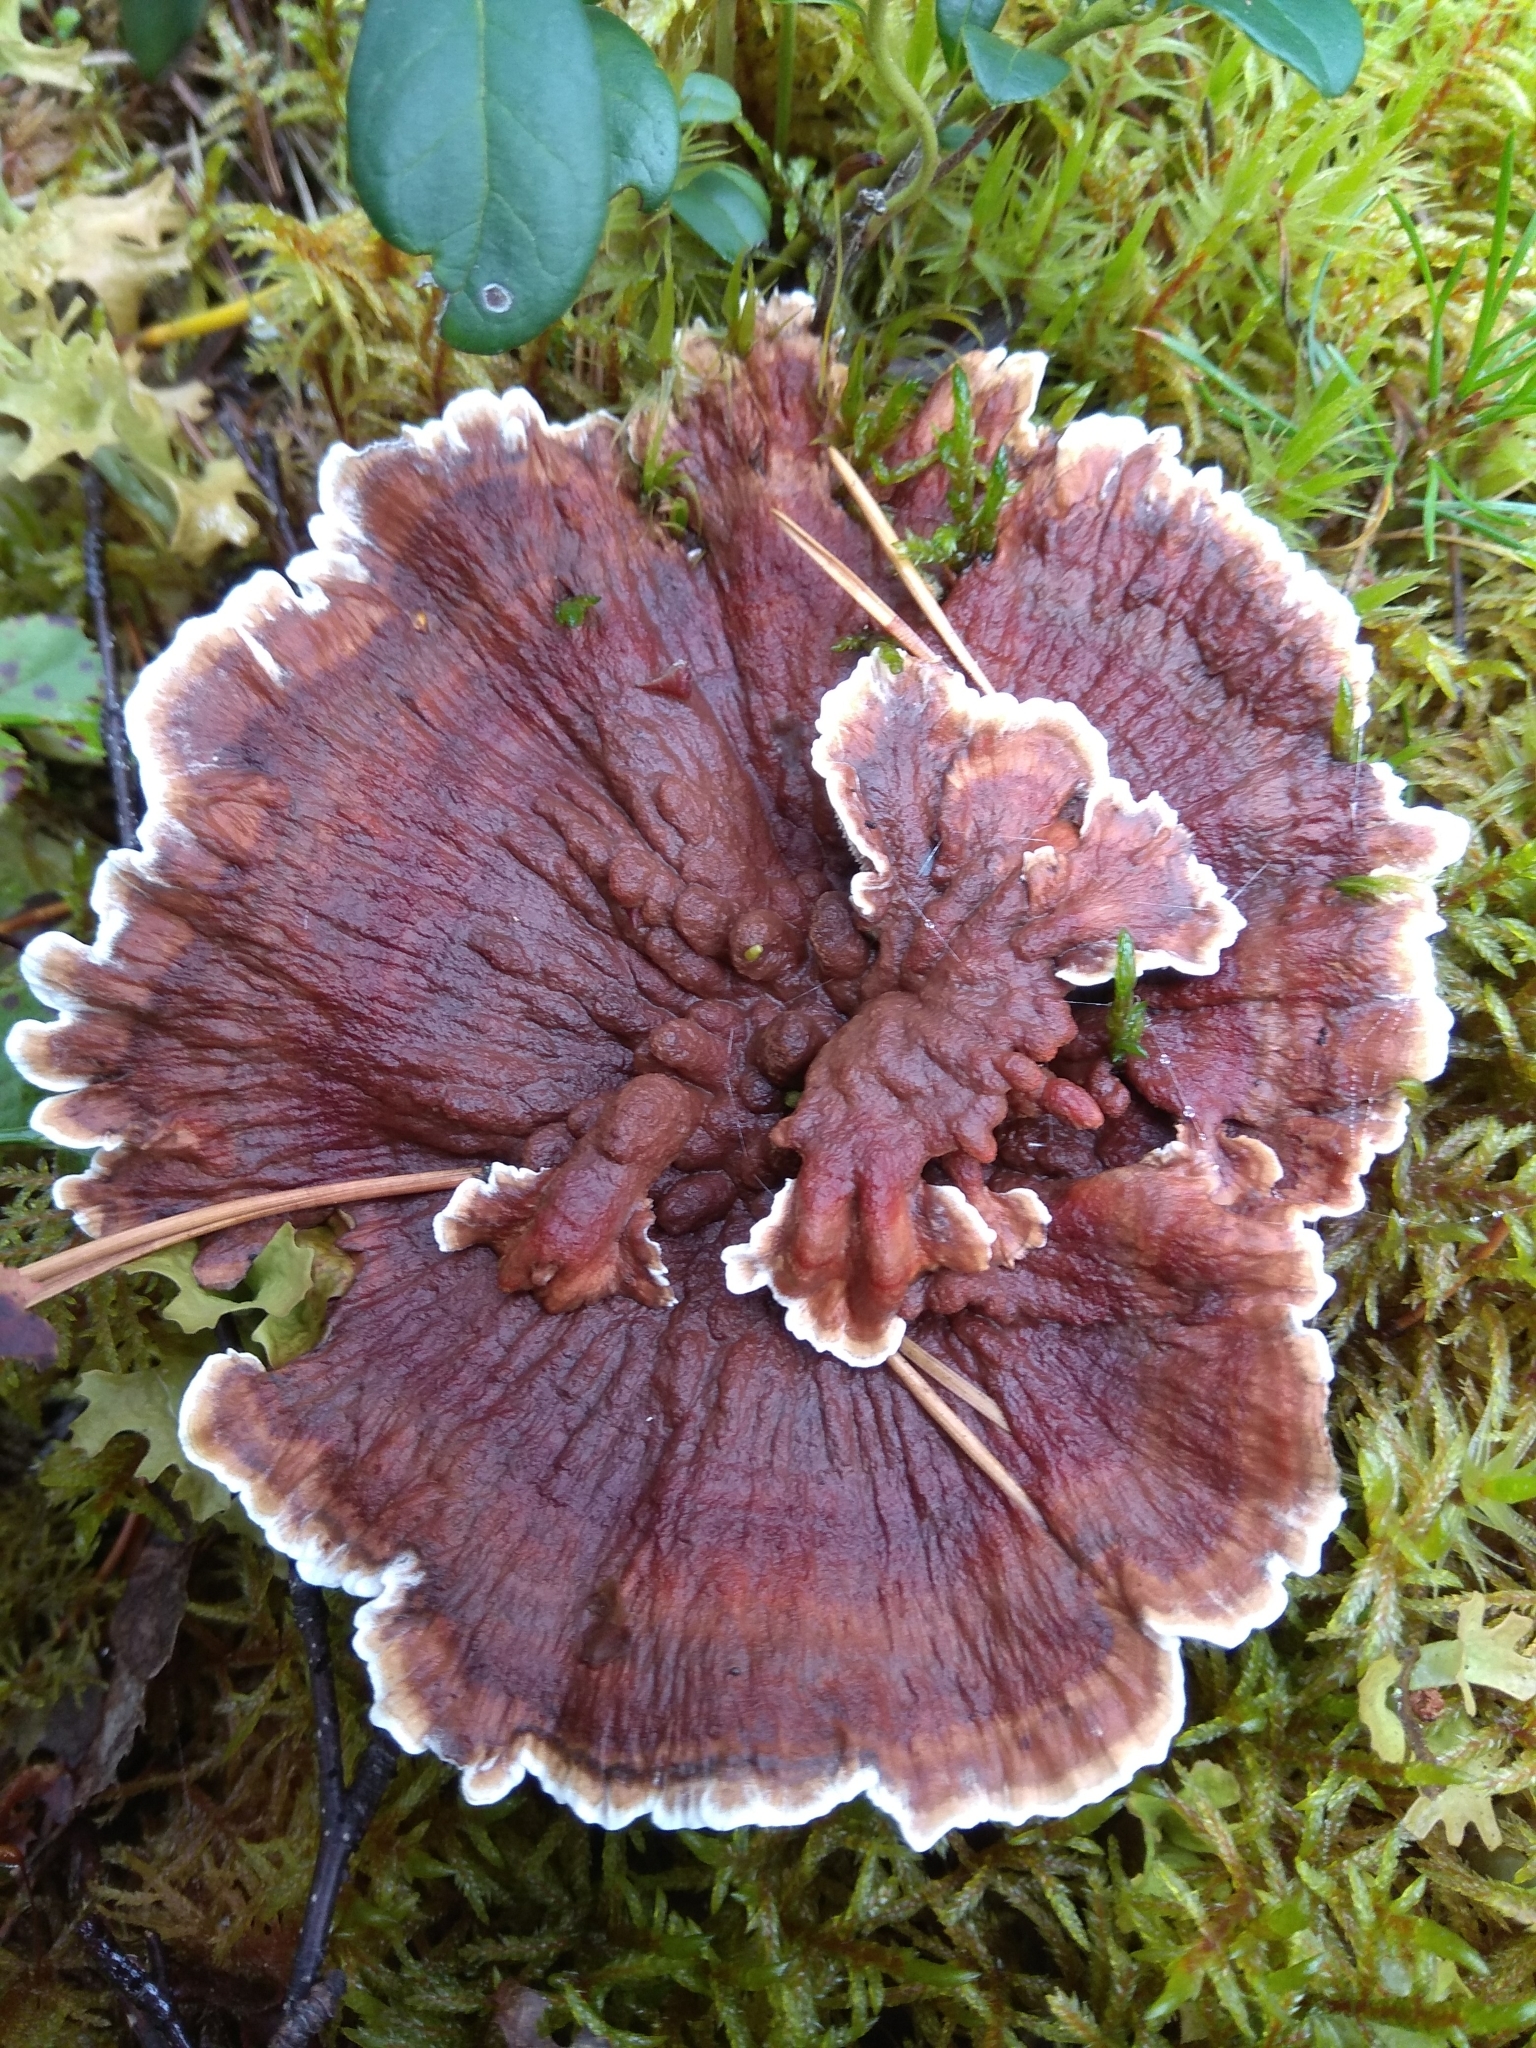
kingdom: Fungi
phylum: Basidiomycota
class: Agaricomycetes
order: Thelephorales
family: Bankeraceae
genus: Hydnellum
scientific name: Hydnellum aurantiacum
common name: Orange tooth
